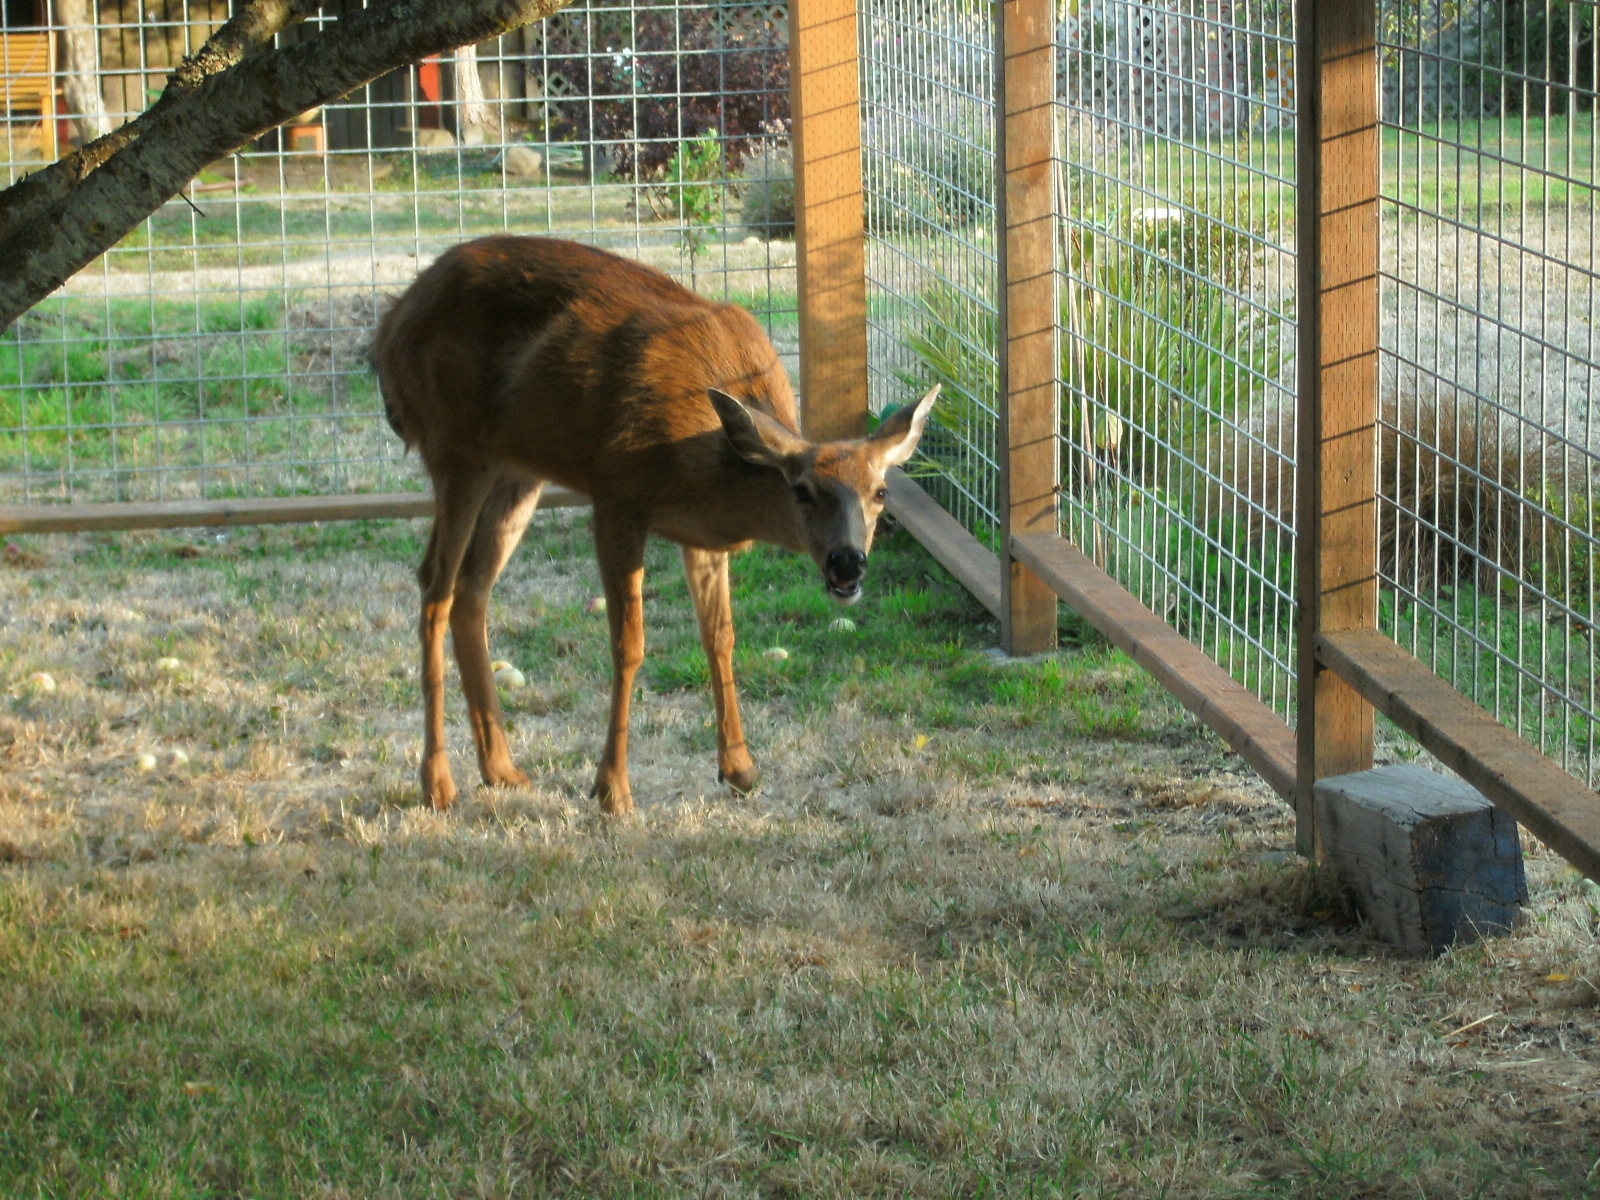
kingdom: Animalia
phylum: Chordata
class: Mammalia
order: Artiodactyla
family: Cervidae
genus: Odocoileus
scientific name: Odocoileus hemionus
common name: Mule deer
